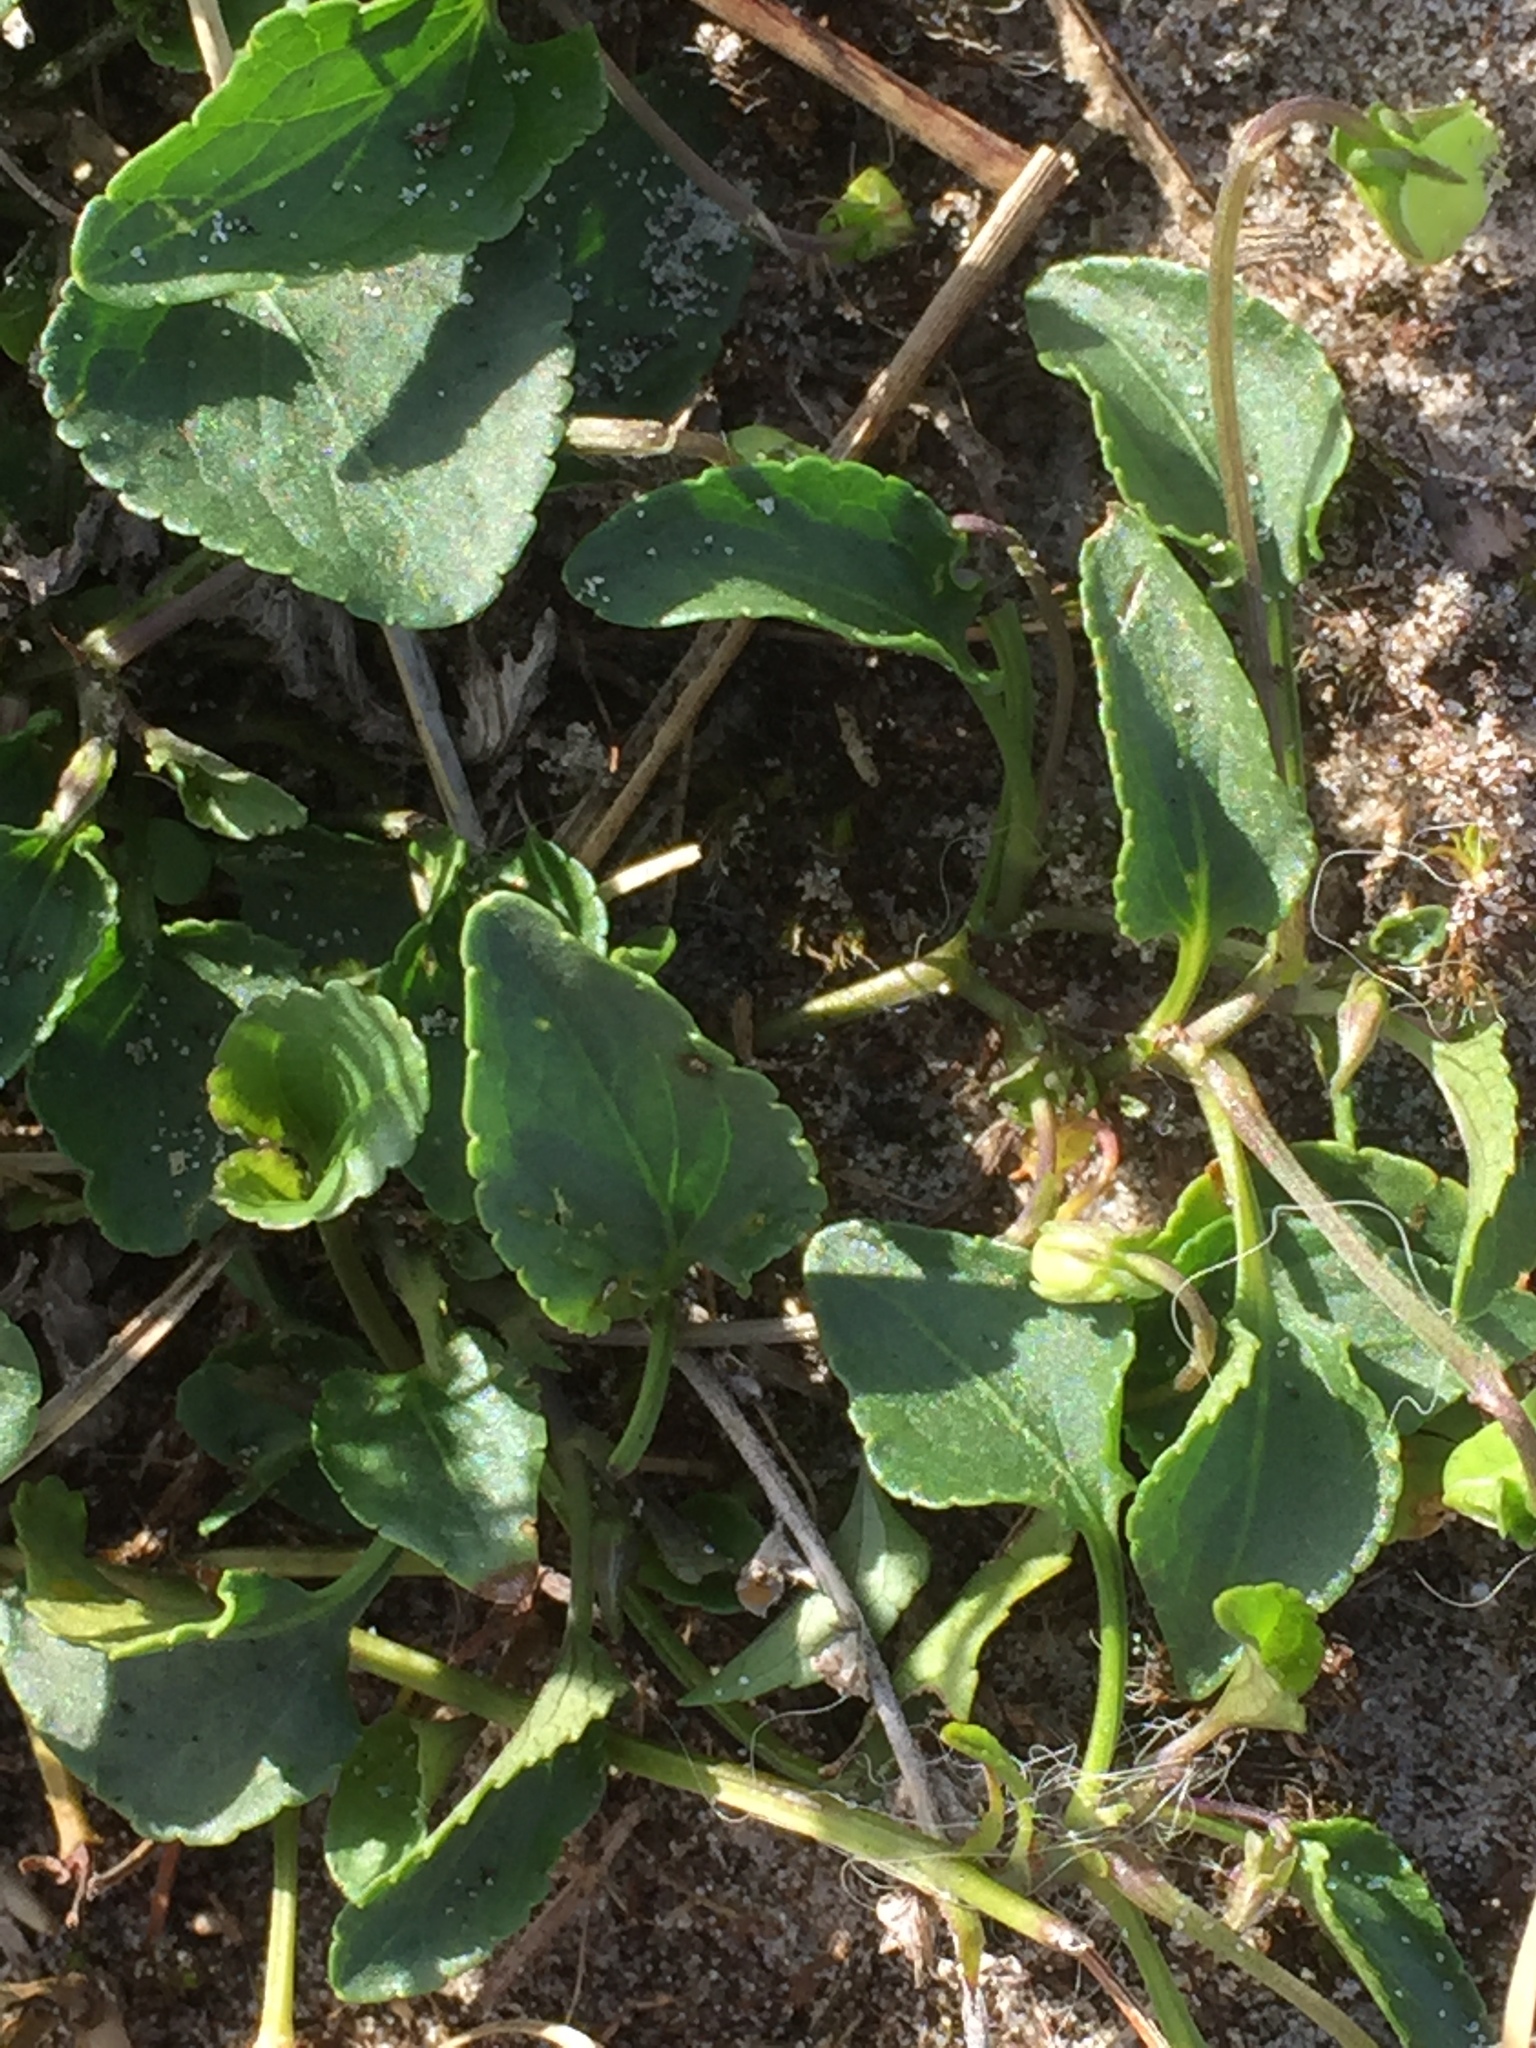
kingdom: Plantae
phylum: Tracheophyta
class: Magnoliopsida
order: Malpighiales
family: Violaceae
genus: Viola
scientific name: Viola canina
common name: Heath dog-violet
